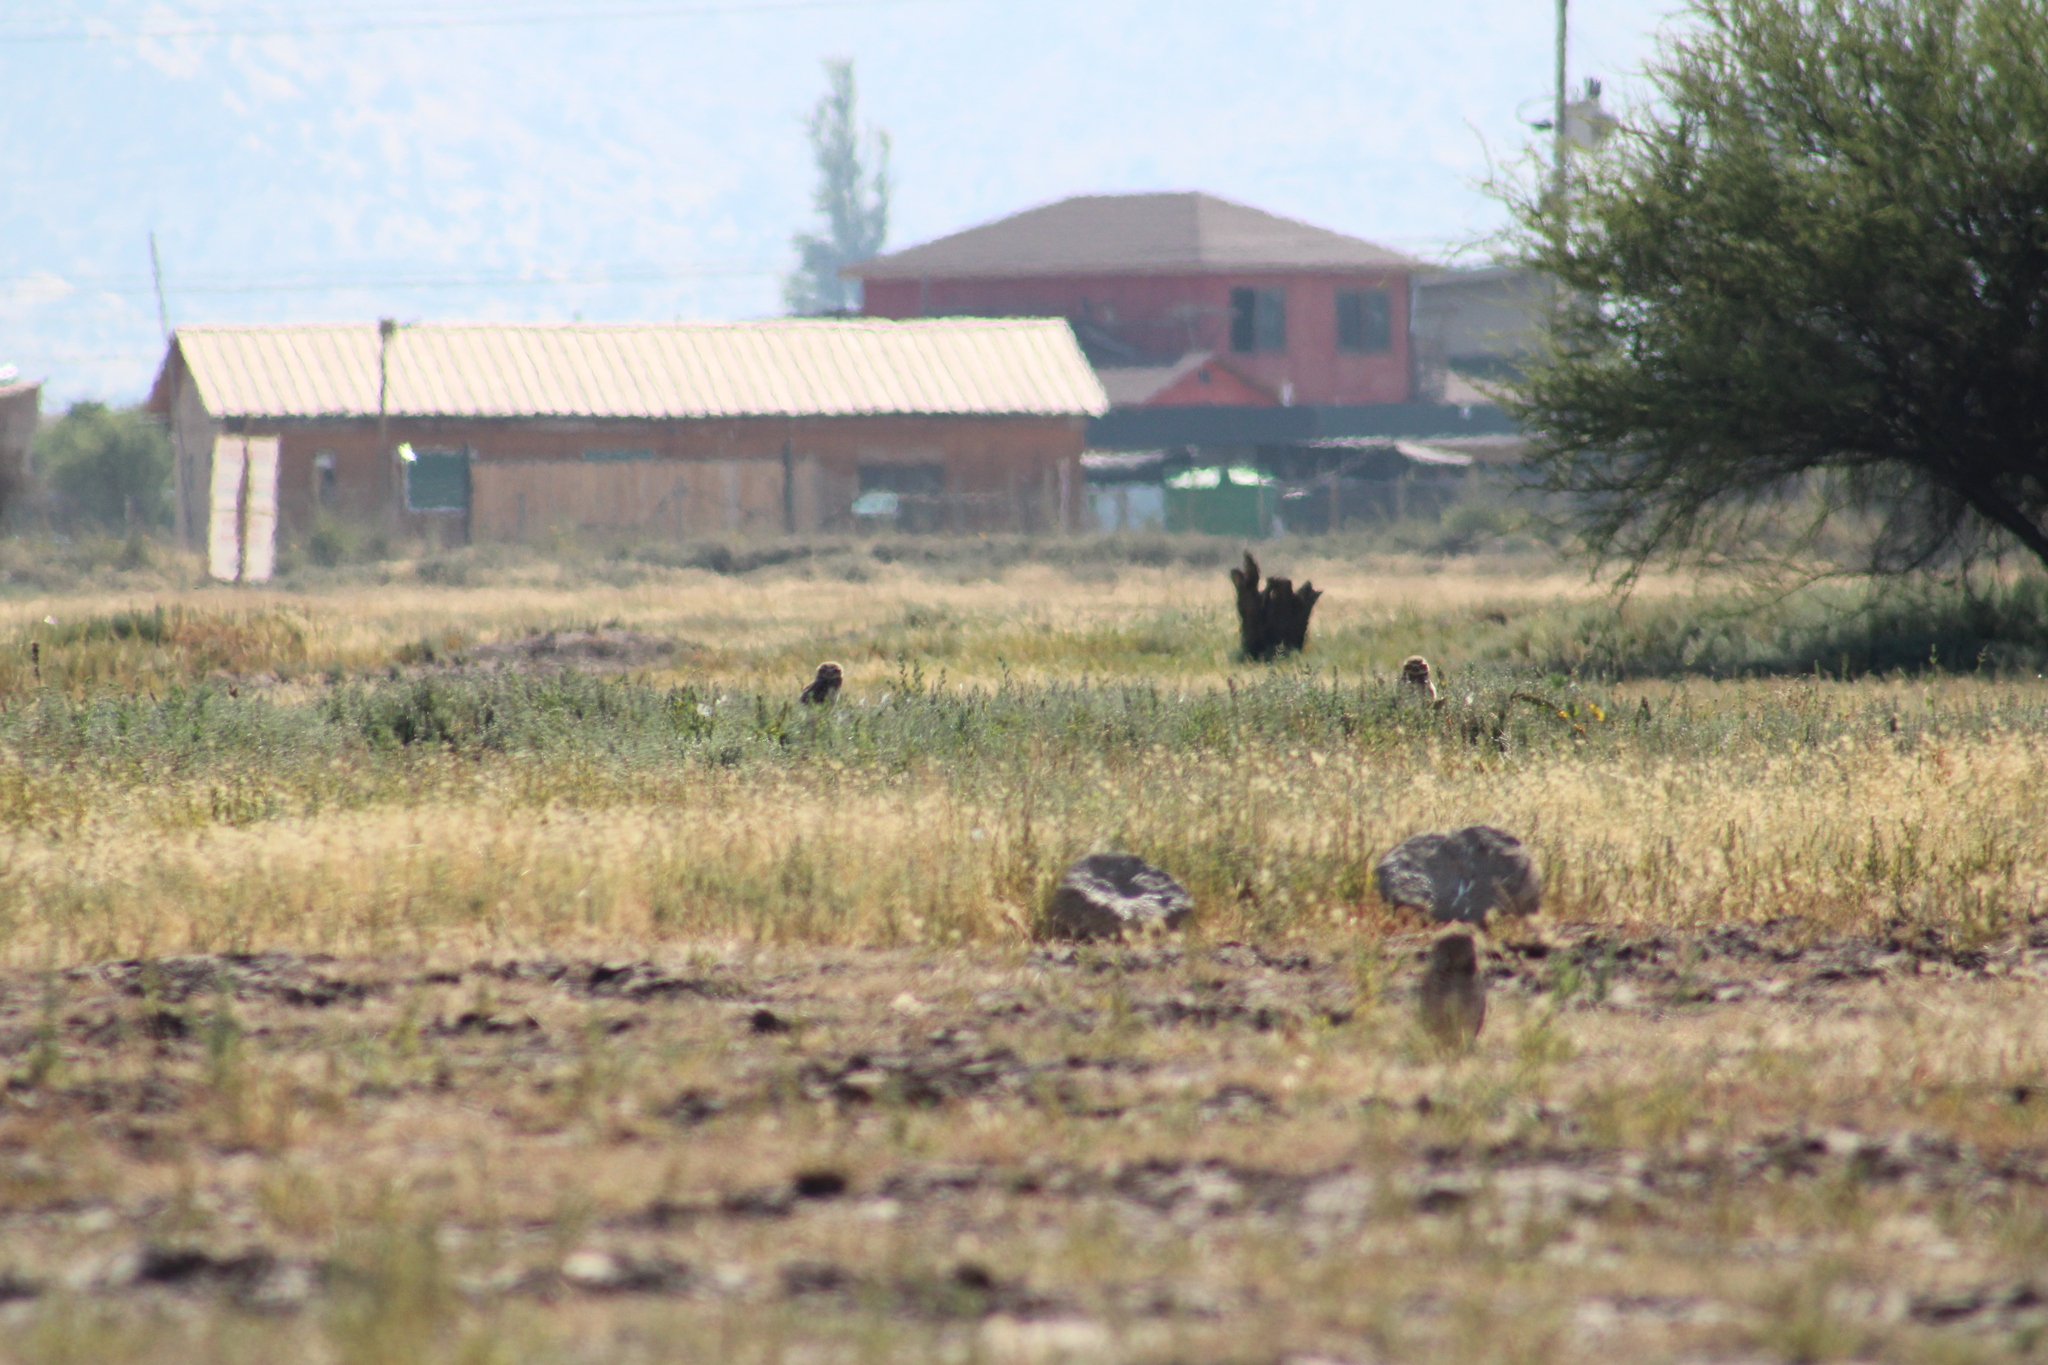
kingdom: Animalia
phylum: Chordata
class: Aves
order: Strigiformes
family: Strigidae
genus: Athene
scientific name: Athene cunicularia
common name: Burrowing owl
